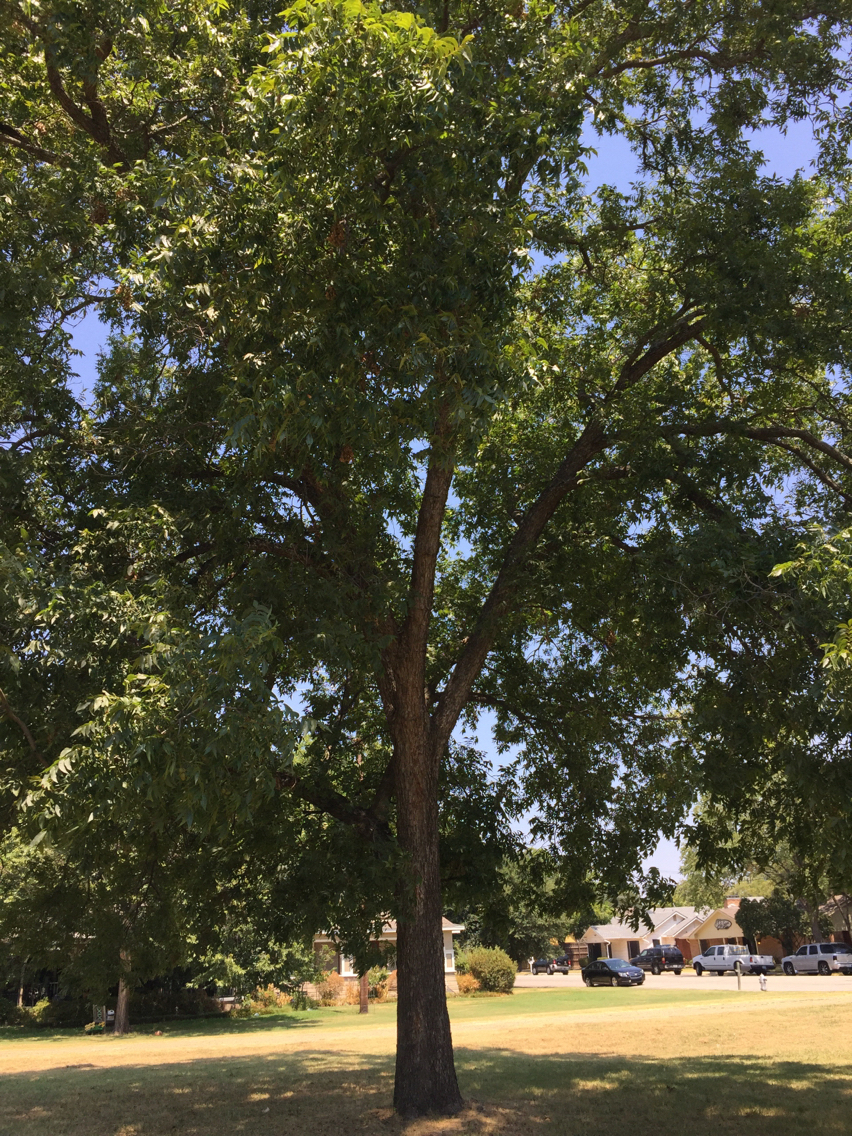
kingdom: Plantae
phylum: Tracheophyta
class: Magnoliopsida
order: Fagales
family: Juglandaceae
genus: Carya
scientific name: Carya illinoinensis
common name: Pecan
